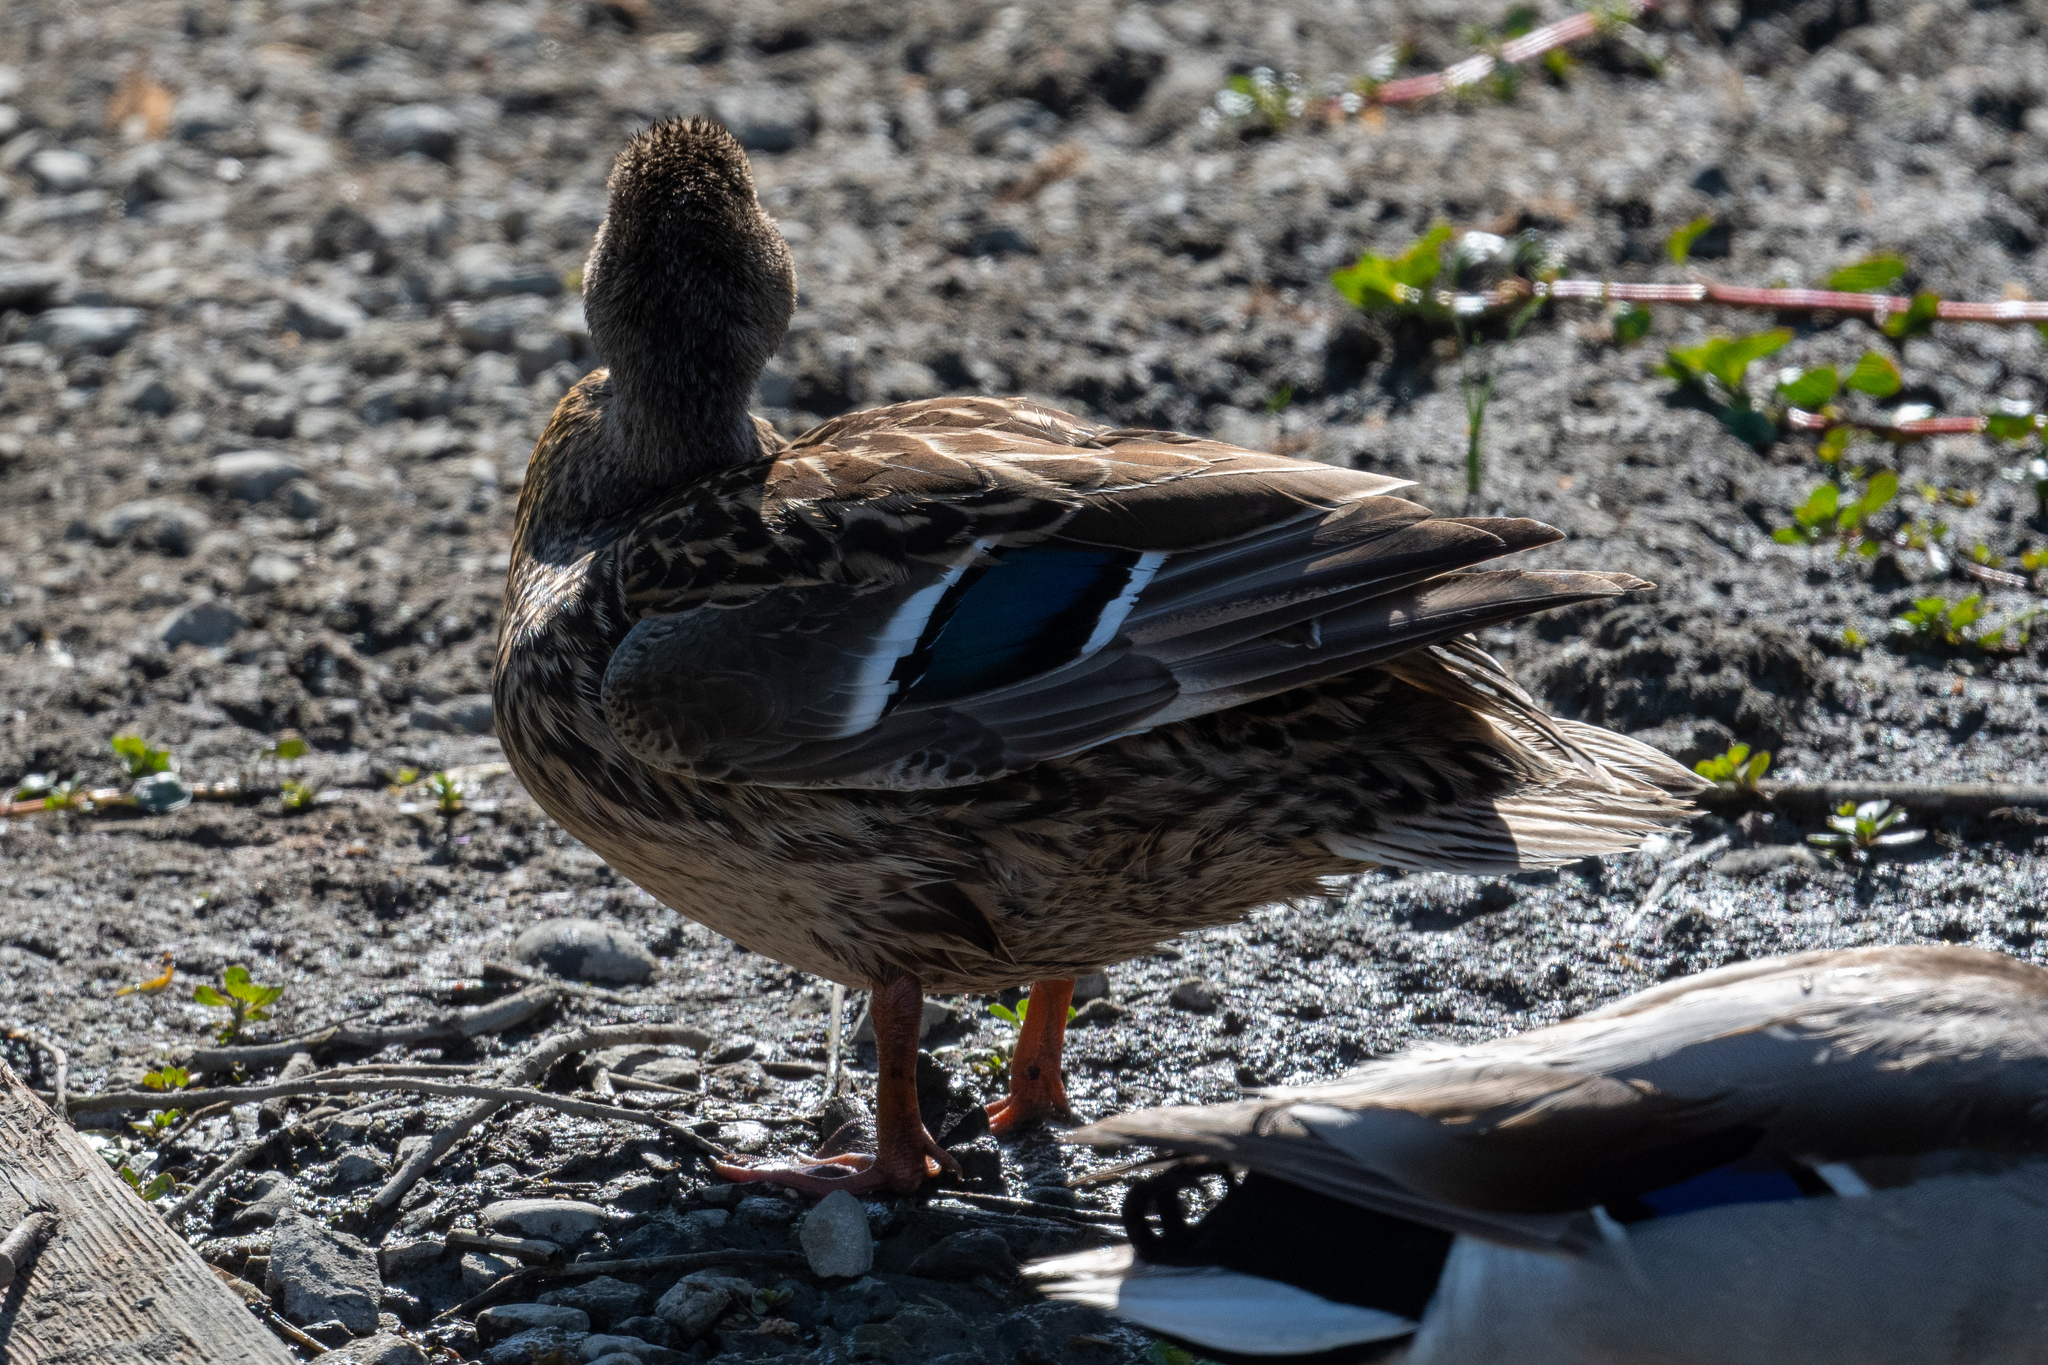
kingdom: Animalia
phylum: Chordata
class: Aves
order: Anseriformes
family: Anatidae
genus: Anas
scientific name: Anas platyrhynchos
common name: Mallard
